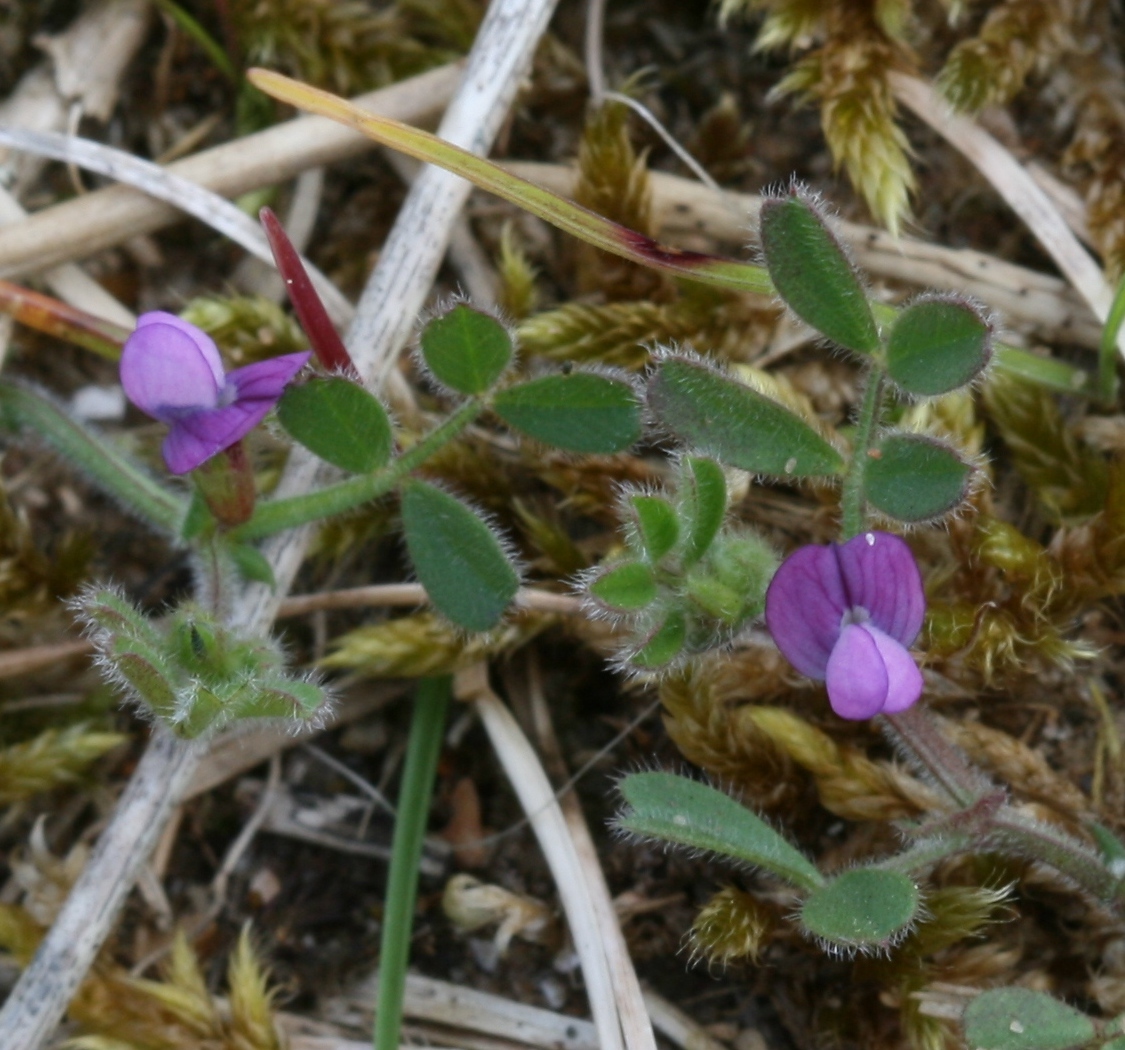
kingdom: Plantae
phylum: Tracheophyta
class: Magnoliopsida
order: Fabales
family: Fabaceae
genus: Vicia
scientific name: Vicia lathyroides
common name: Spring vetch
